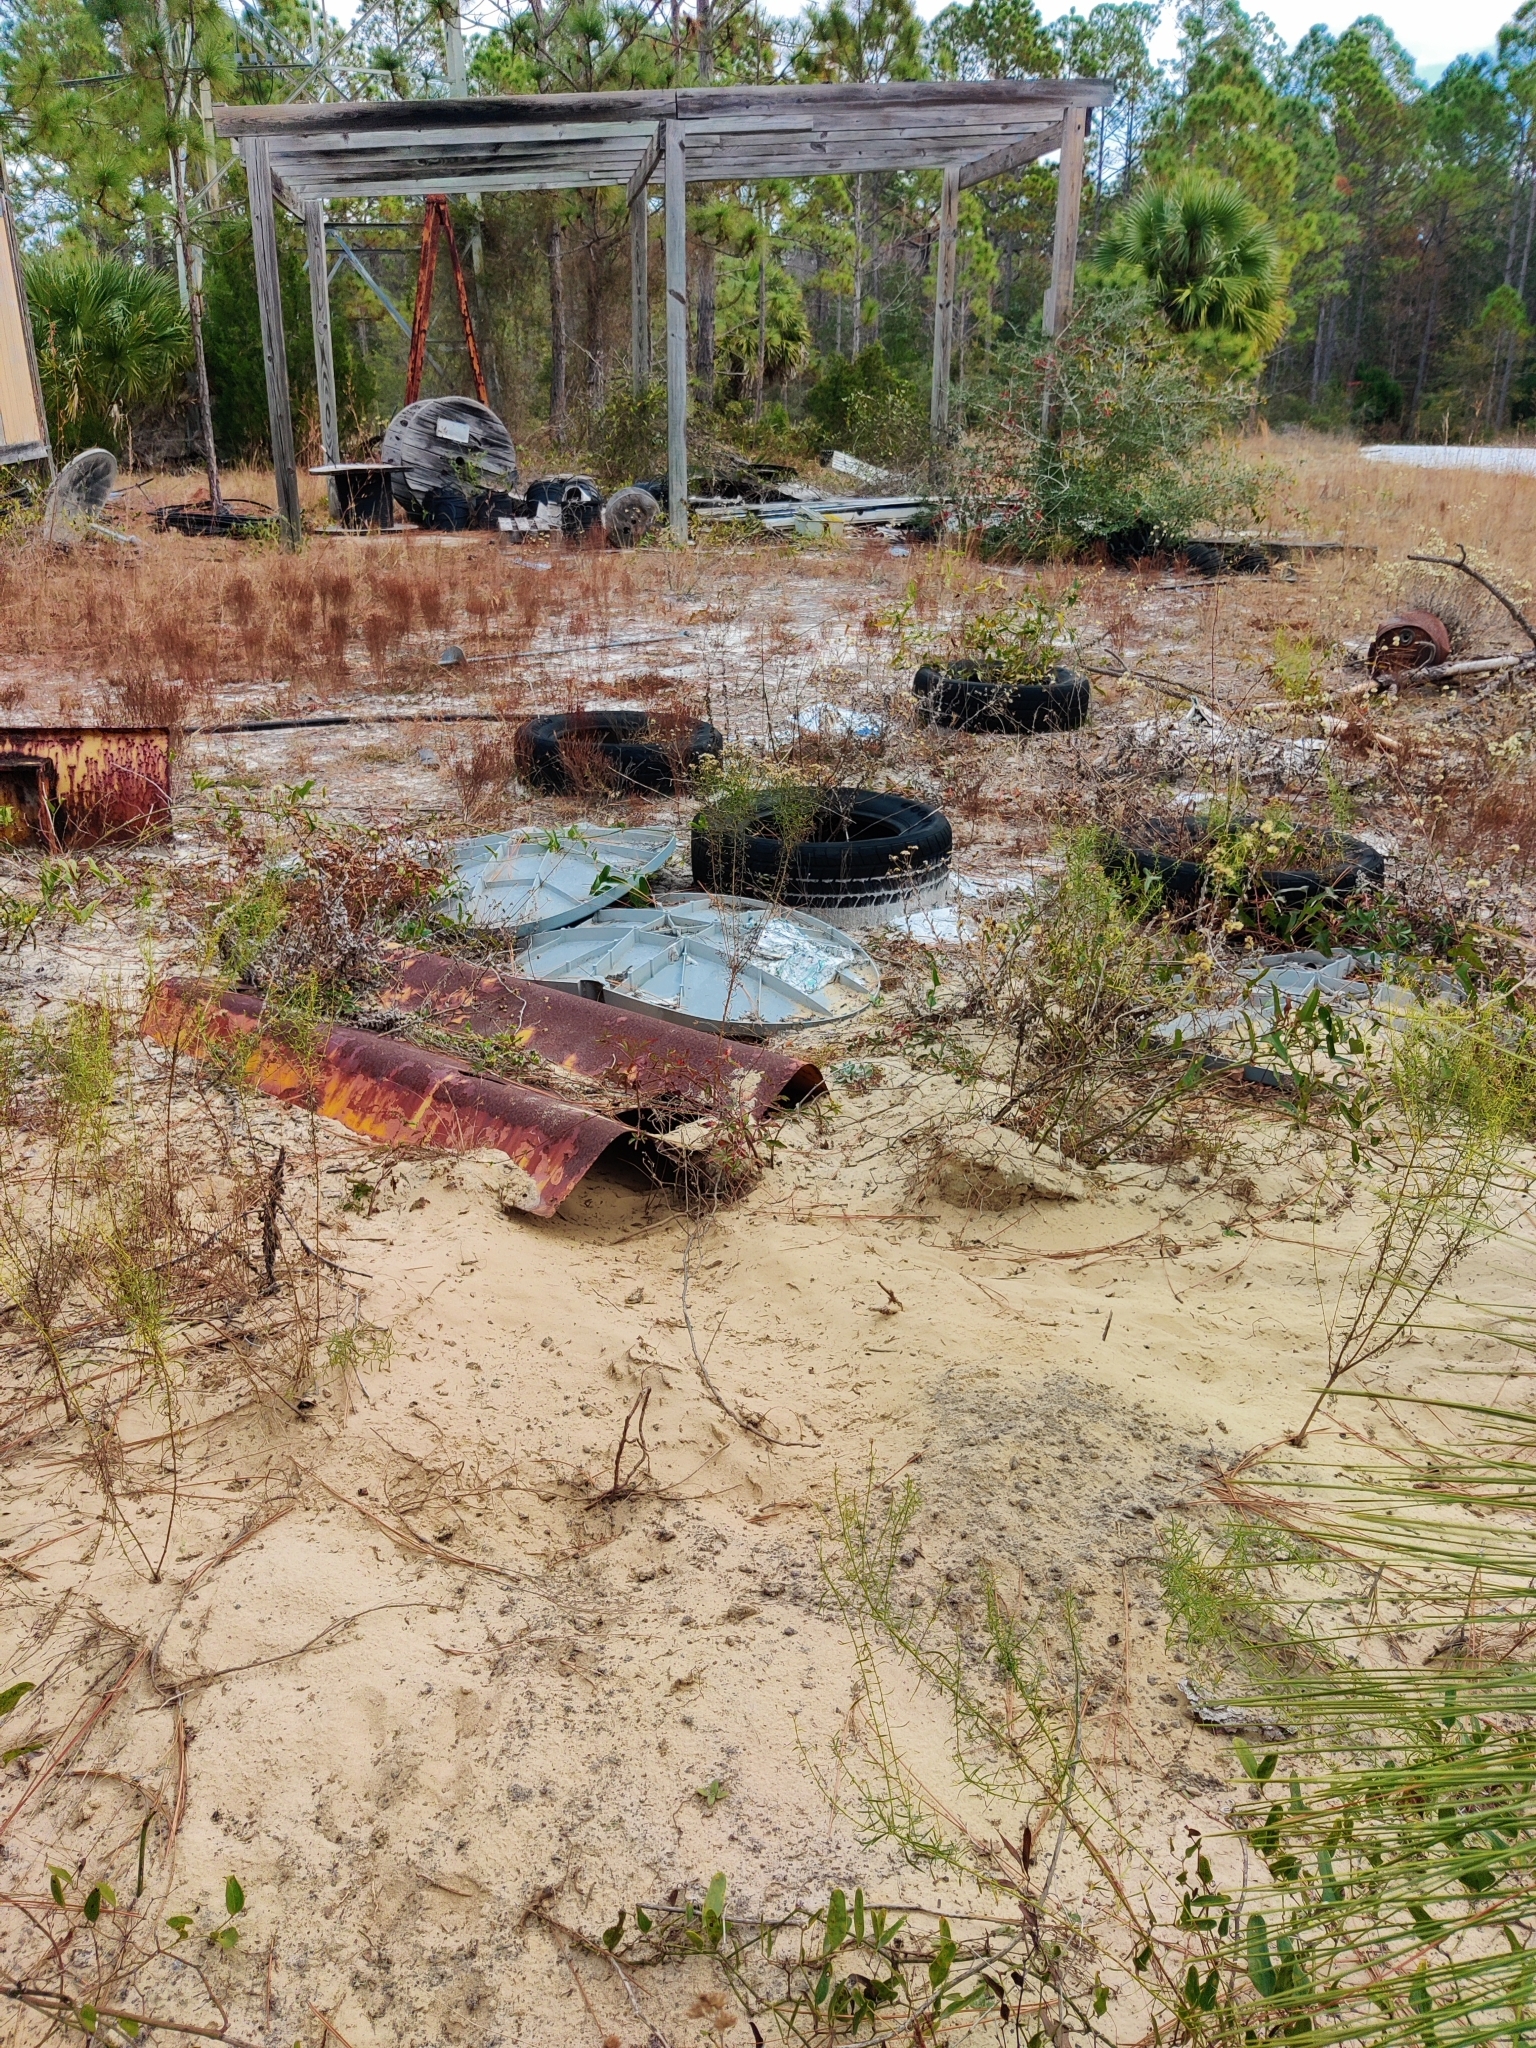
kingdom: Animalia
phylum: Chordata
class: Testudines
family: Testudinidae
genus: Gopherus
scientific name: Gopherus polyphemus
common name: Florida gopher tortoise
